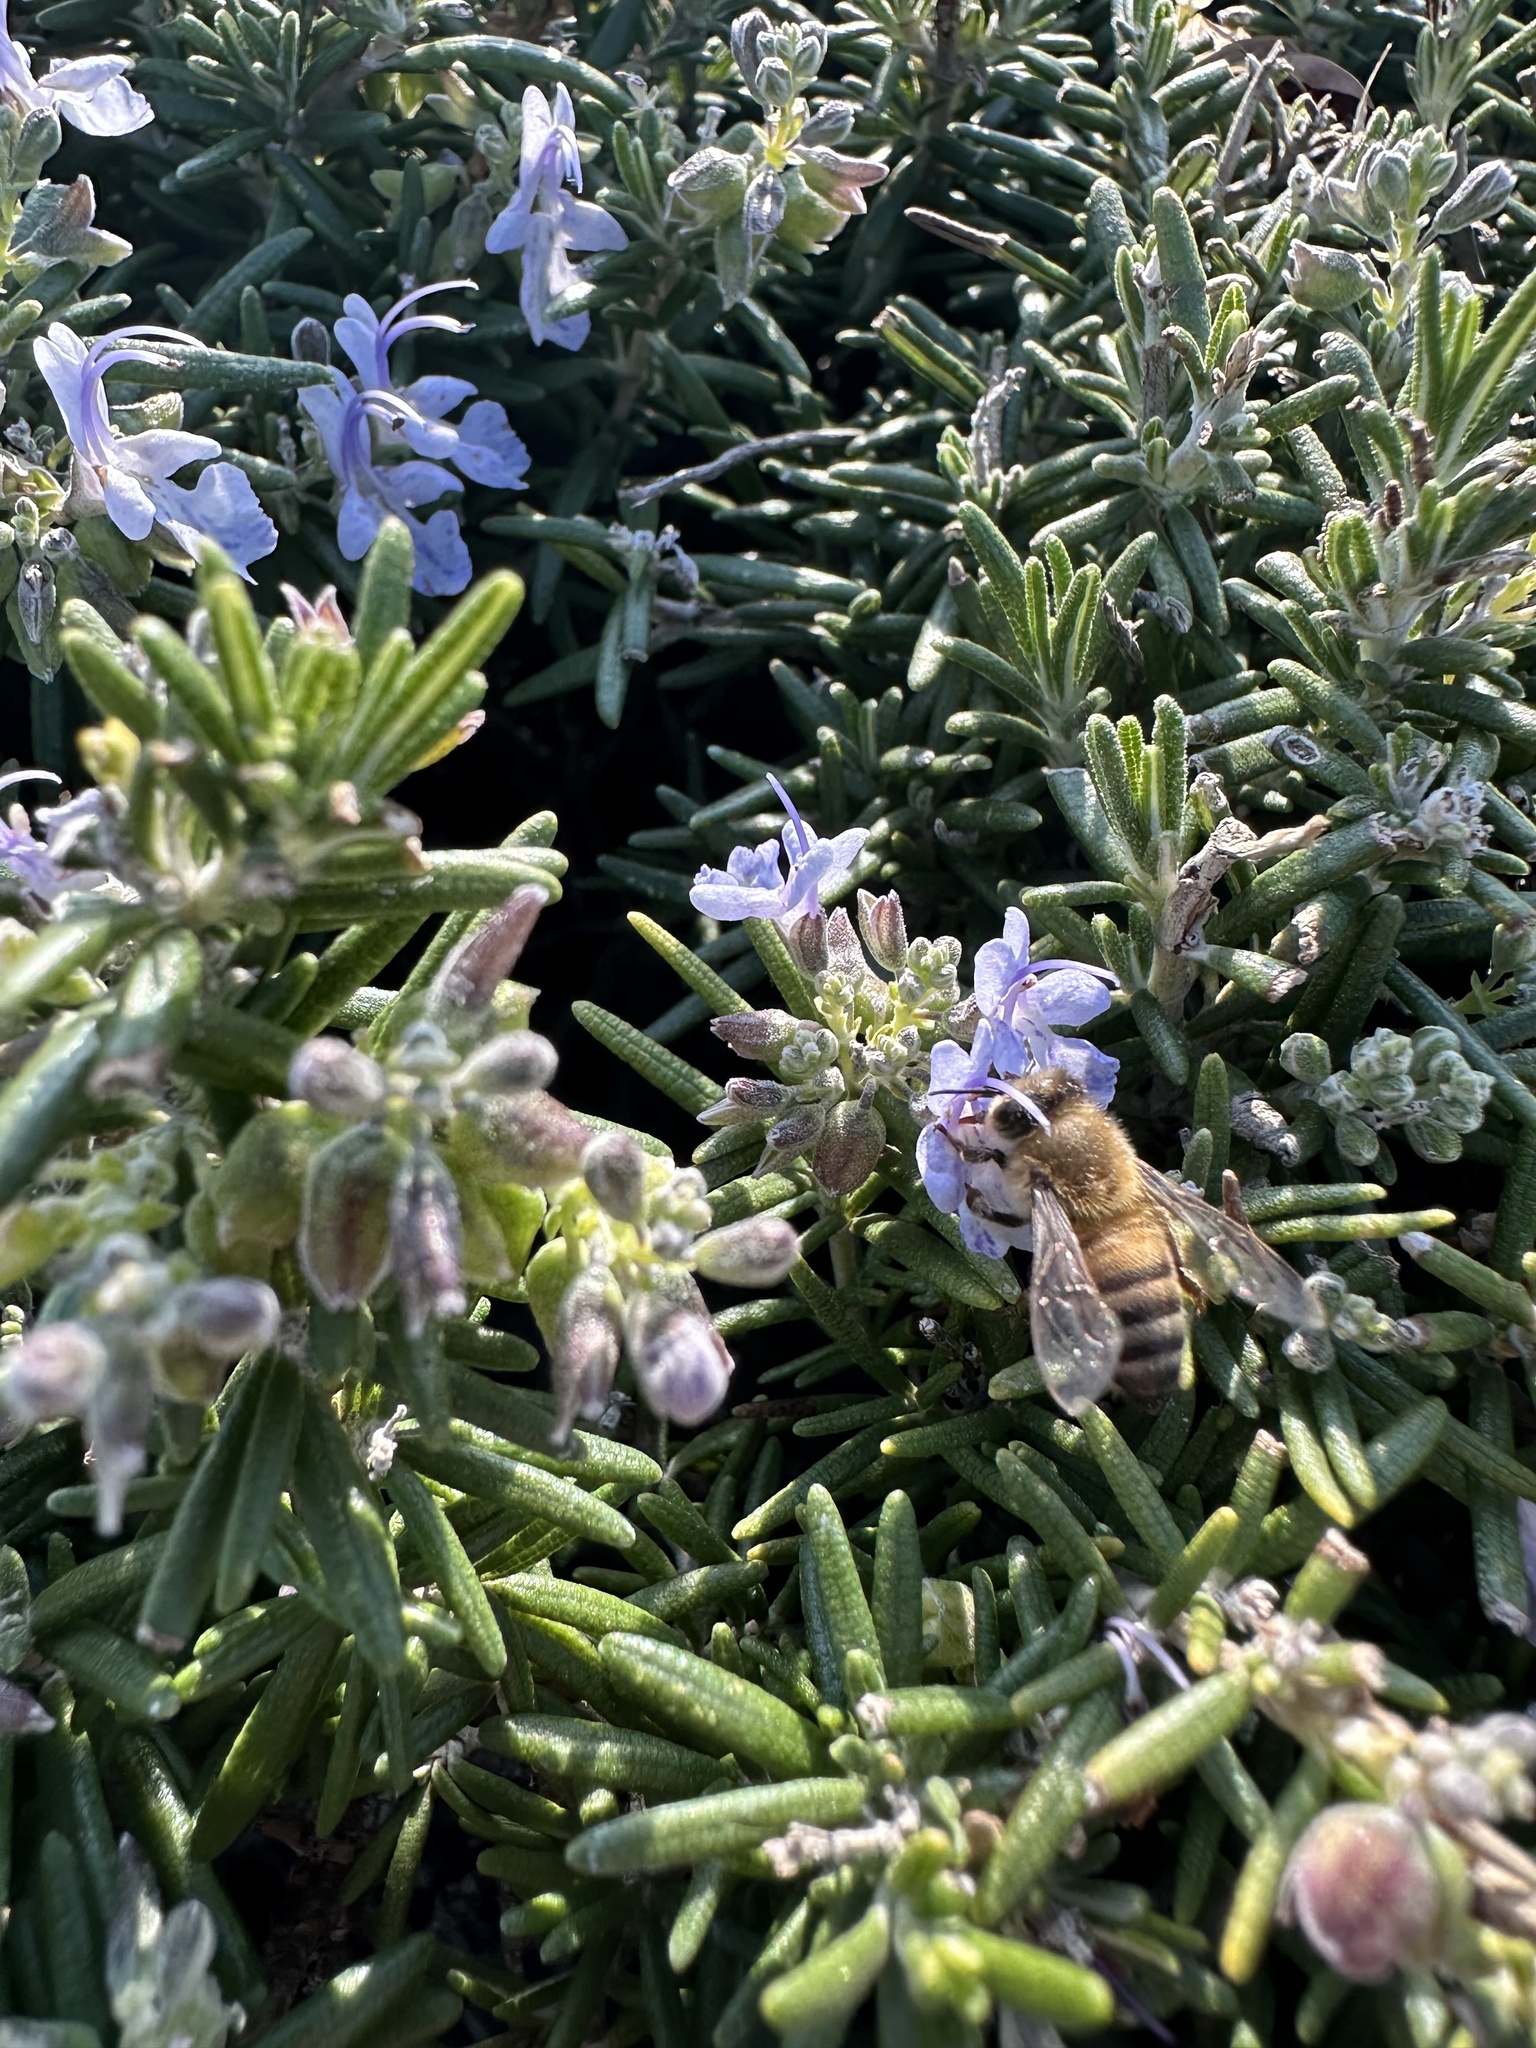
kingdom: Animalia
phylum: Arthropoda
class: Insecta
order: Hymenoptera
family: Apidae
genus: Apis
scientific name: Apis mellifera
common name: Honey bee
